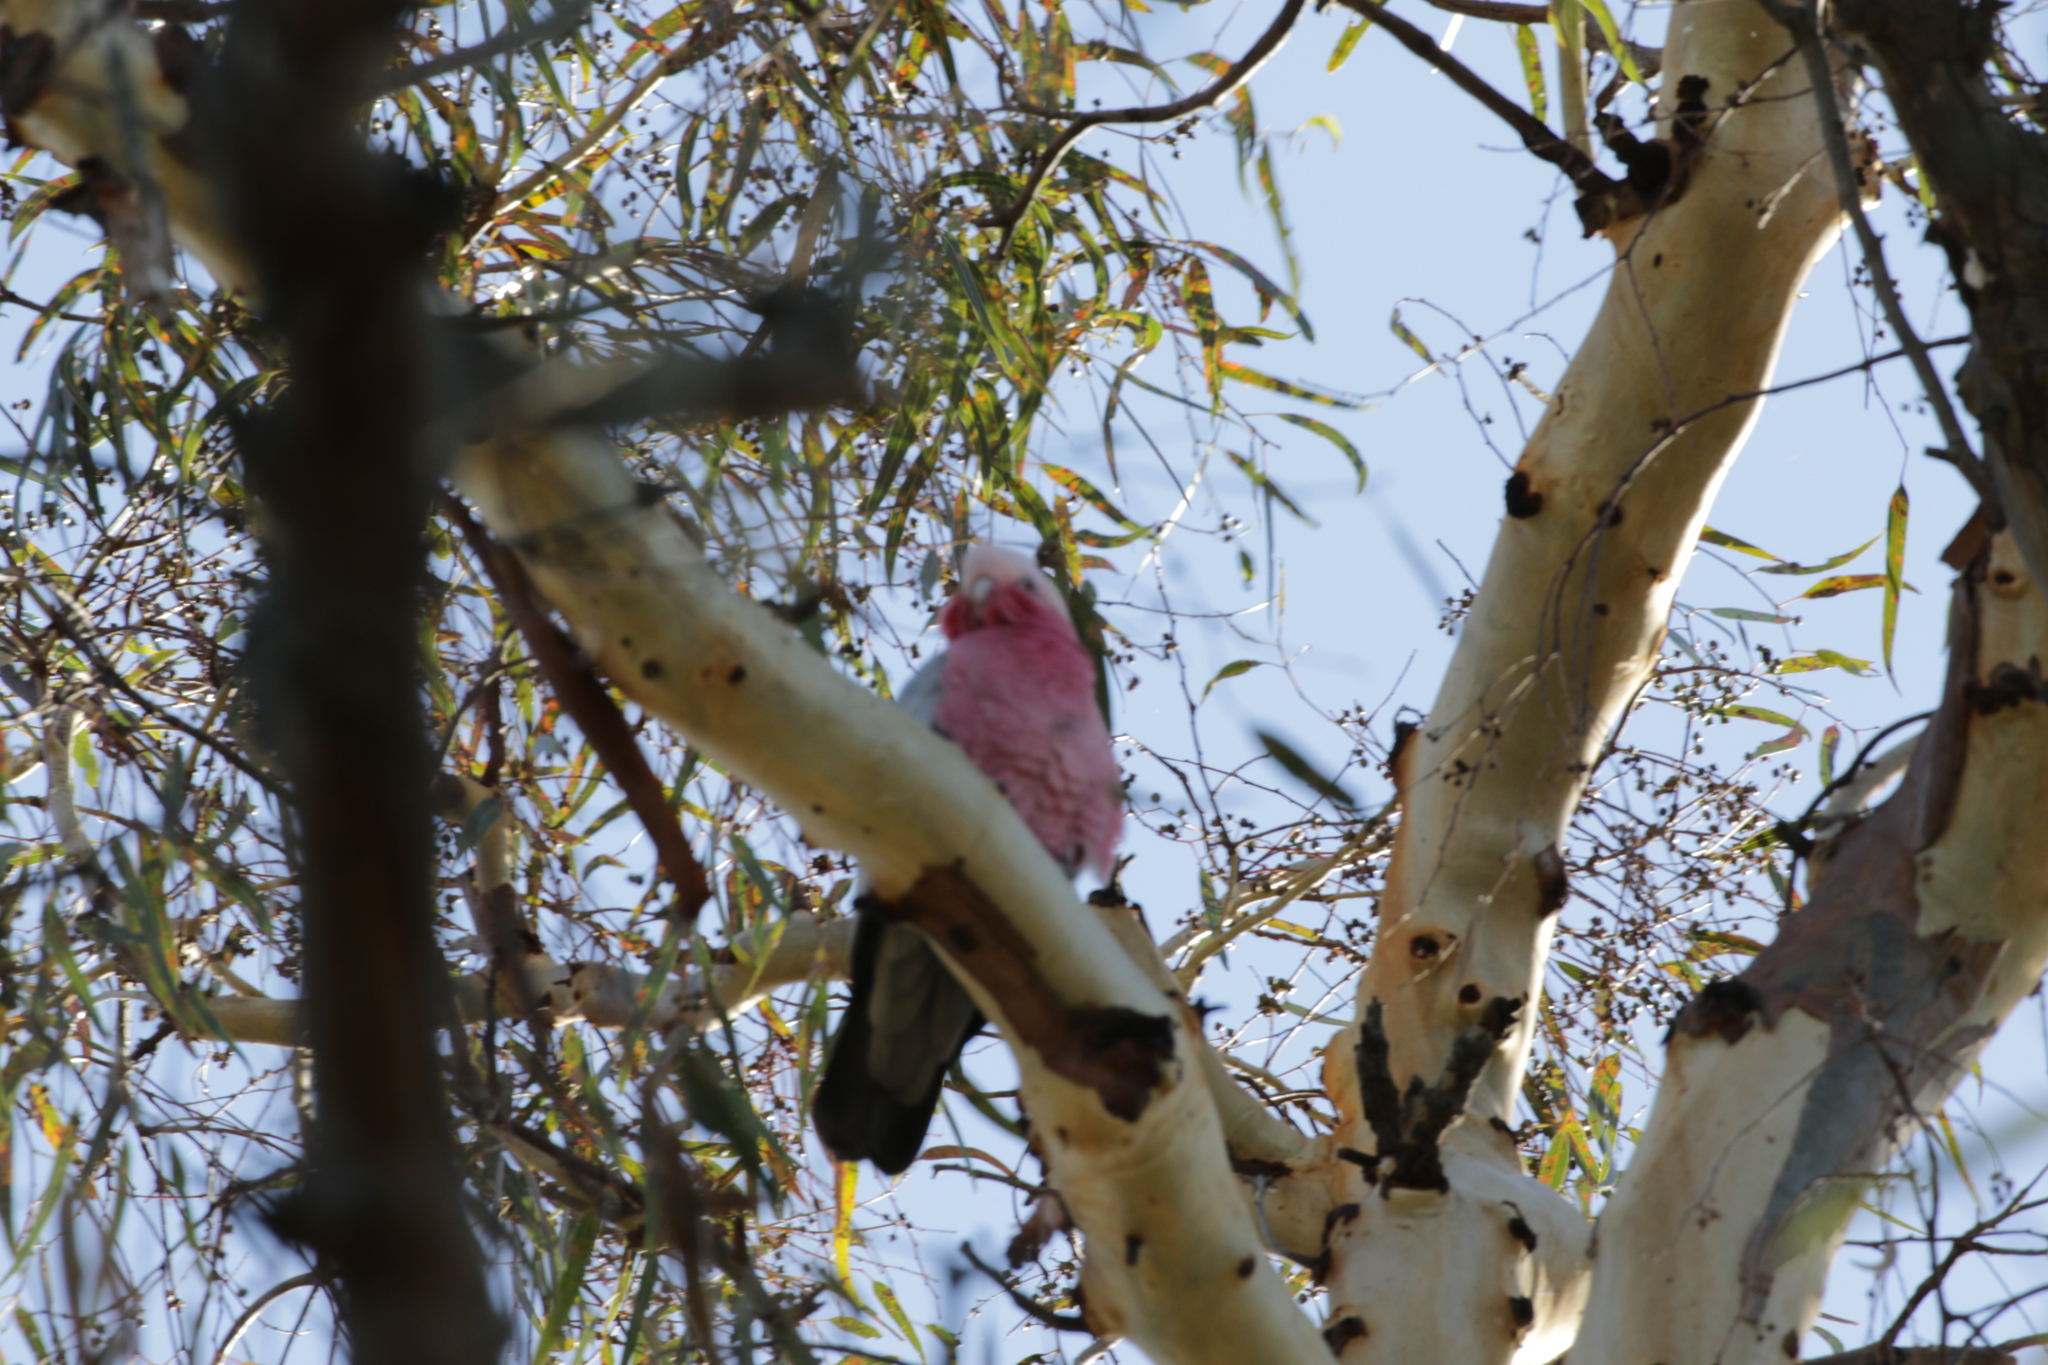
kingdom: Animalia
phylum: Chordata
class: Aves
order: Psittaciformes
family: Psittacidae
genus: Eolophus
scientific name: Eolophus roseicapilla
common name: Galah
